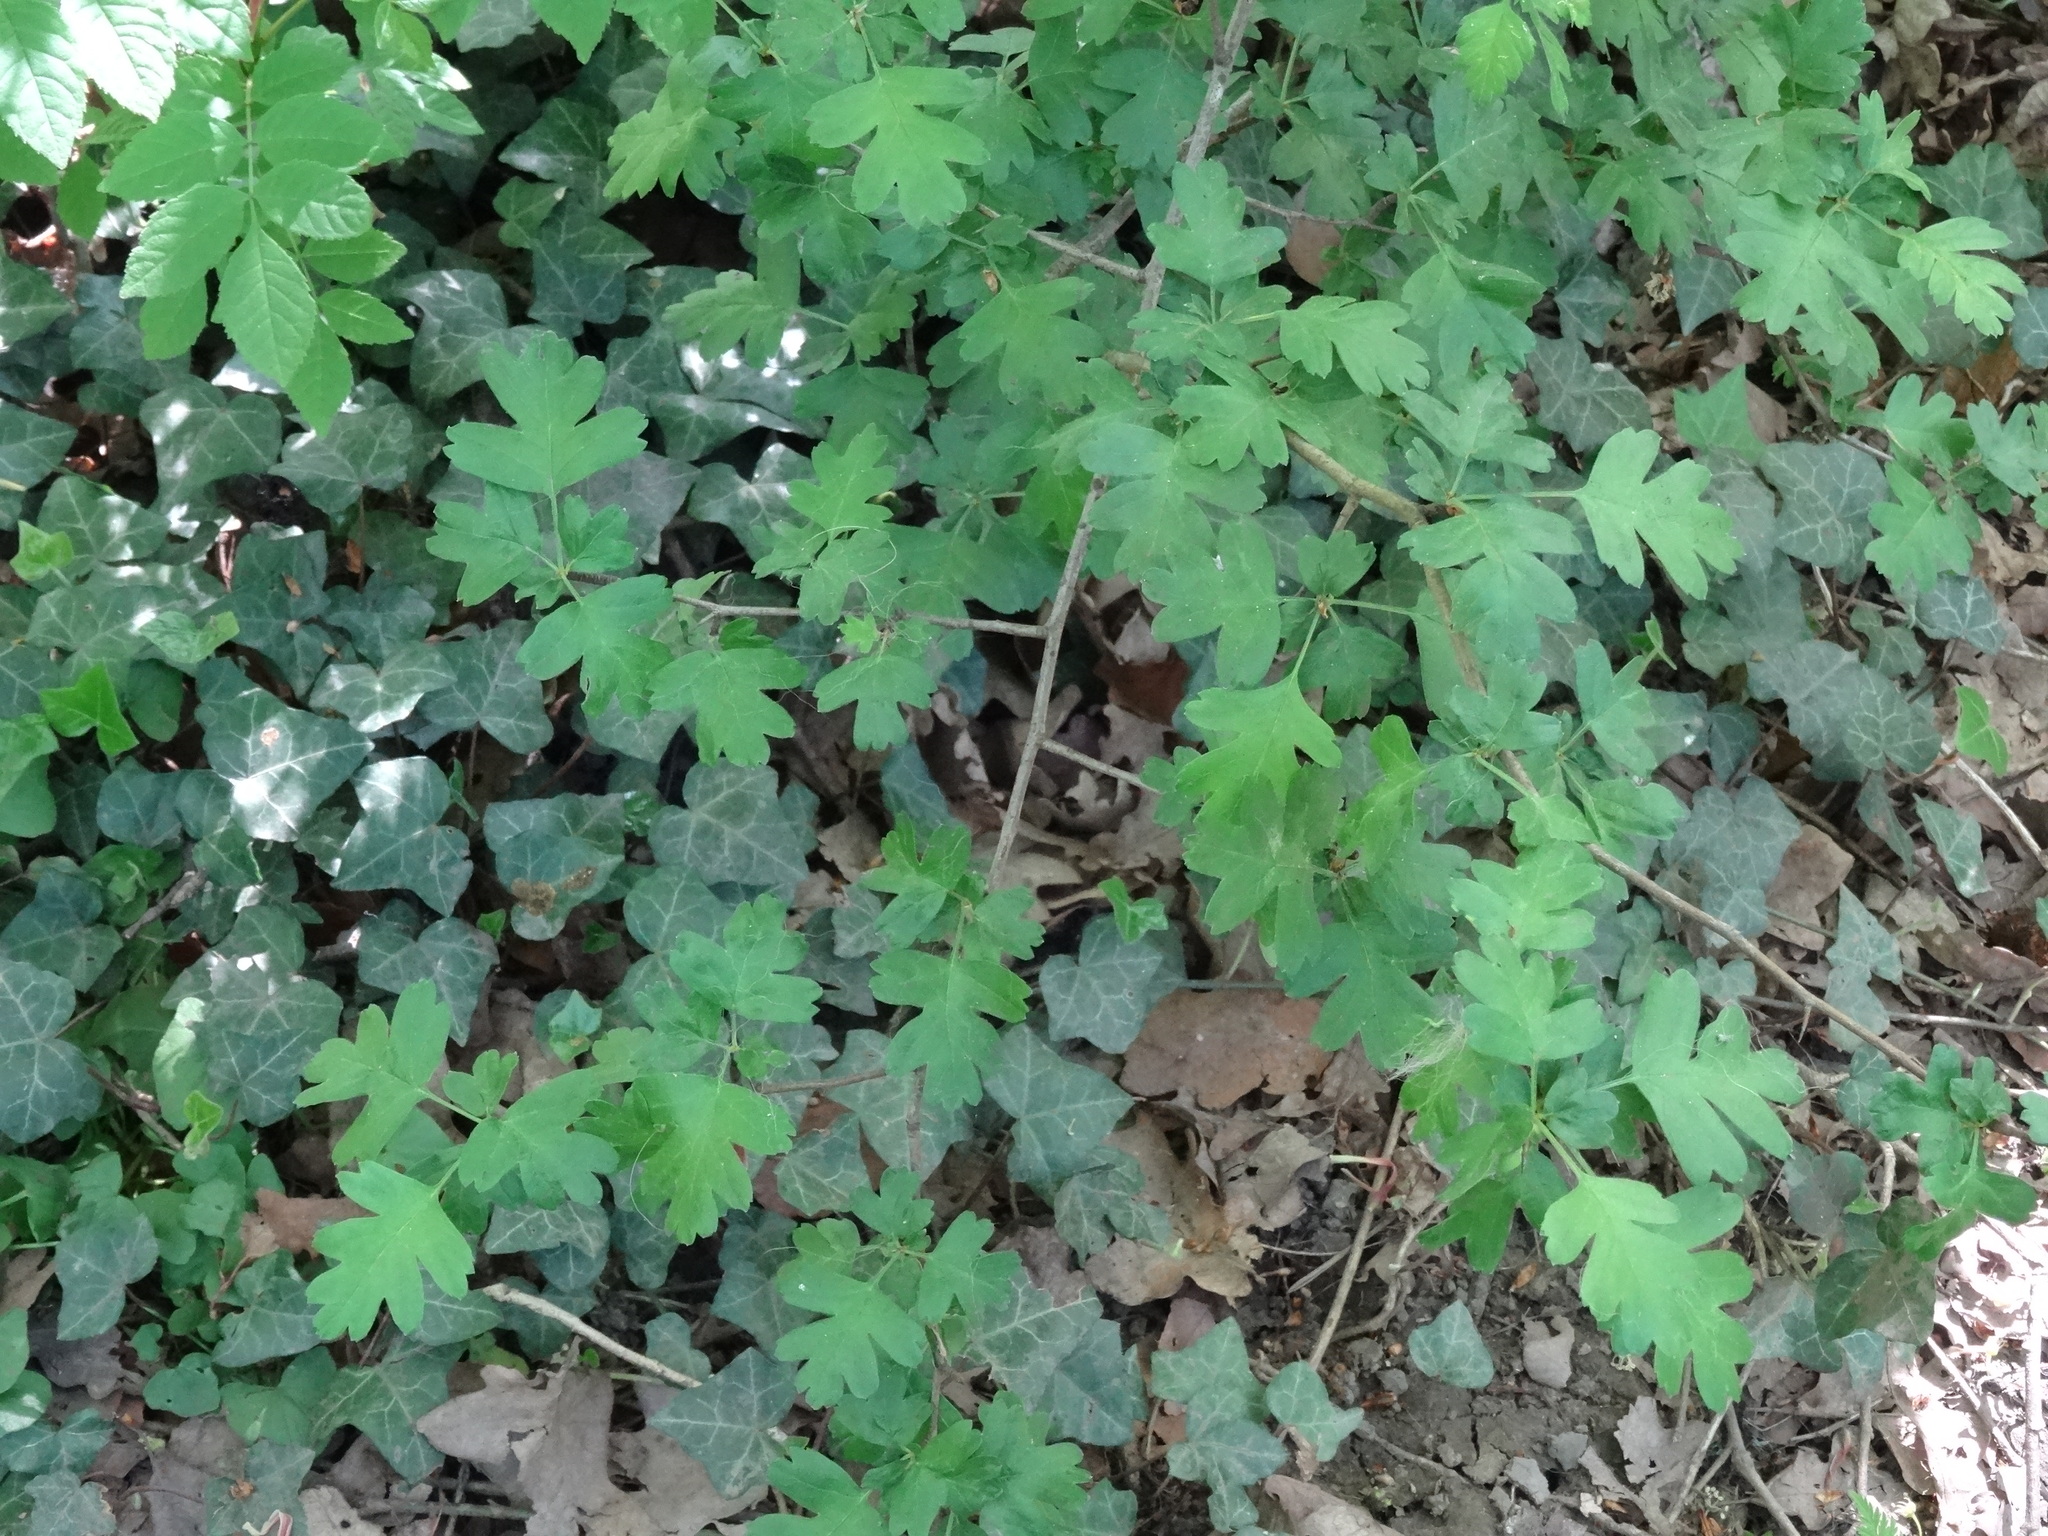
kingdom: Plantae
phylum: Tracheophyta
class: Magnoliopsida
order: Rosales
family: Rosaceae
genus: Crataegus
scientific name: Crataegus monogyna
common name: Hawthorn
